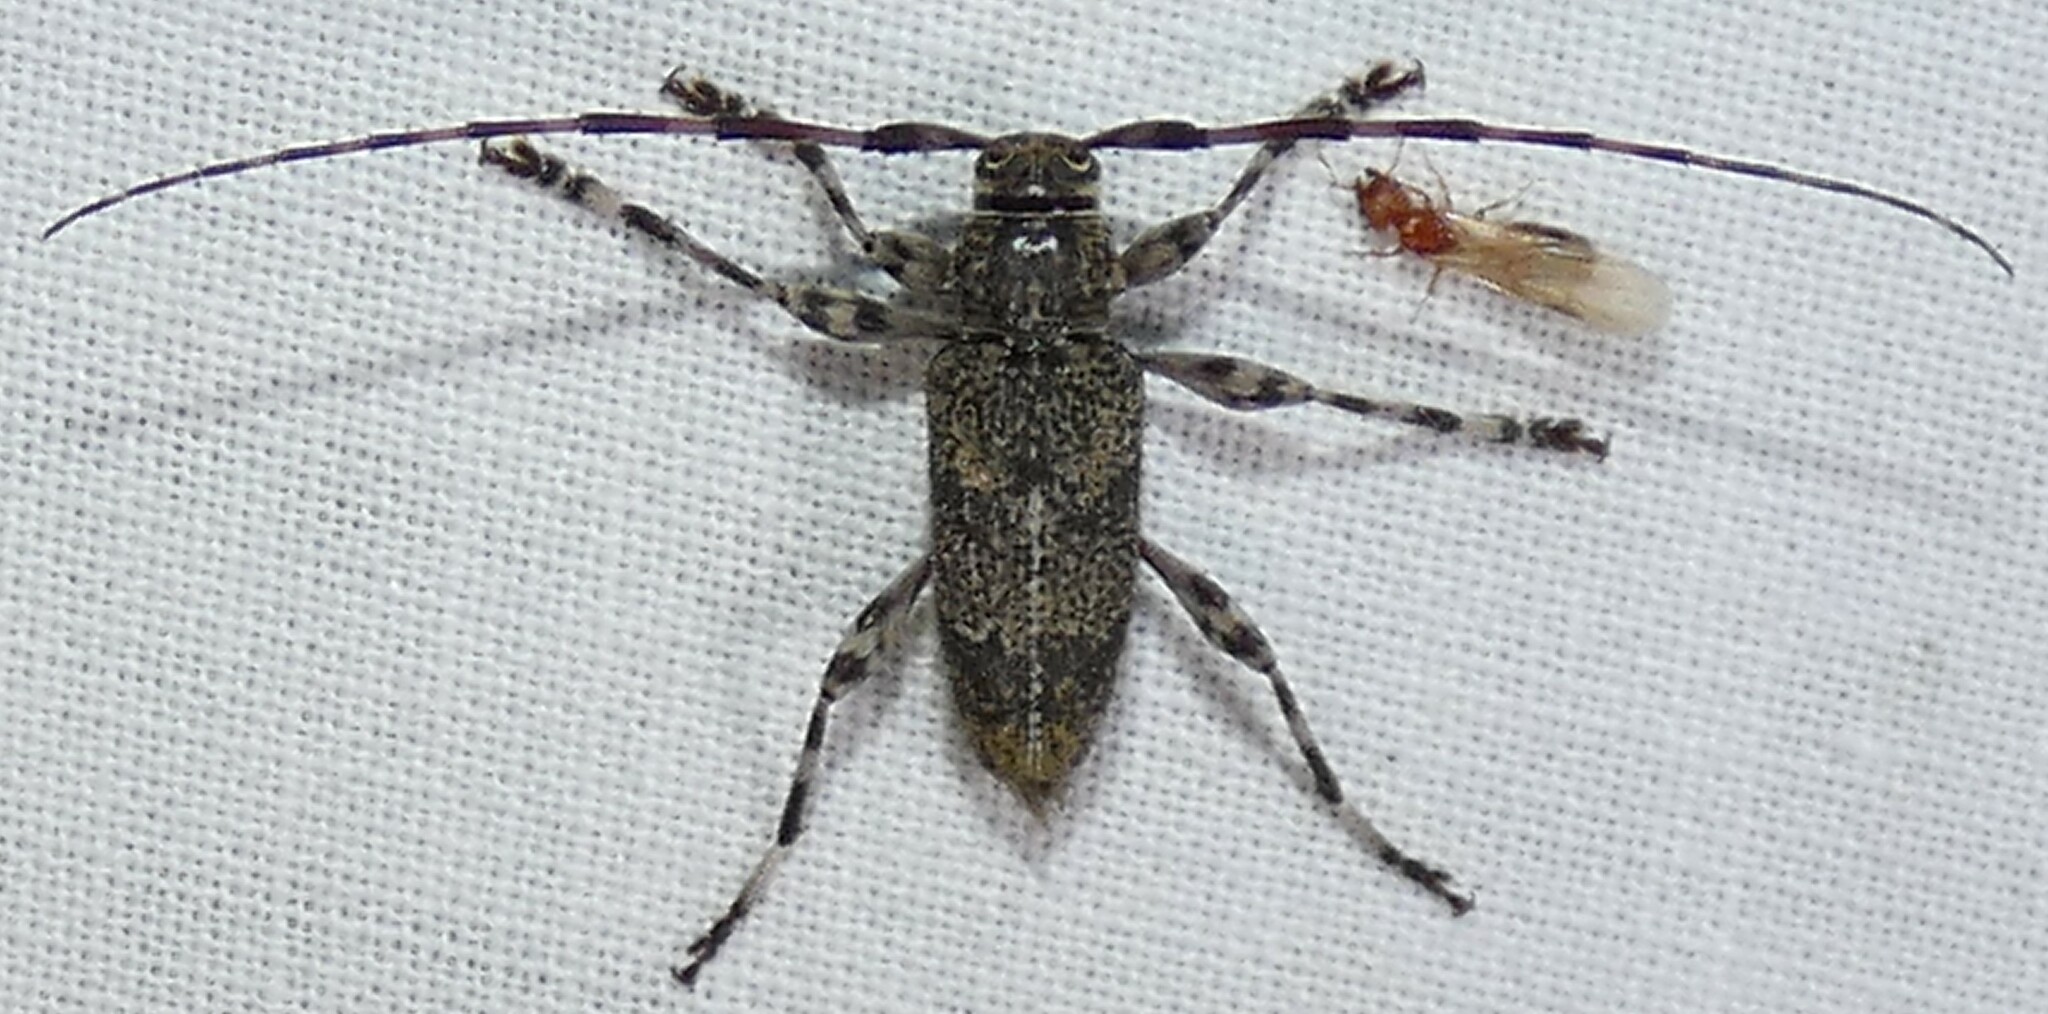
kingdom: Animalia
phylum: Arthropoda
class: Insecta
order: Coleoptera
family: Cerambycidae
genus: Graphisurus
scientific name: Graphisurus fasciatus
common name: Banded graphisurus
